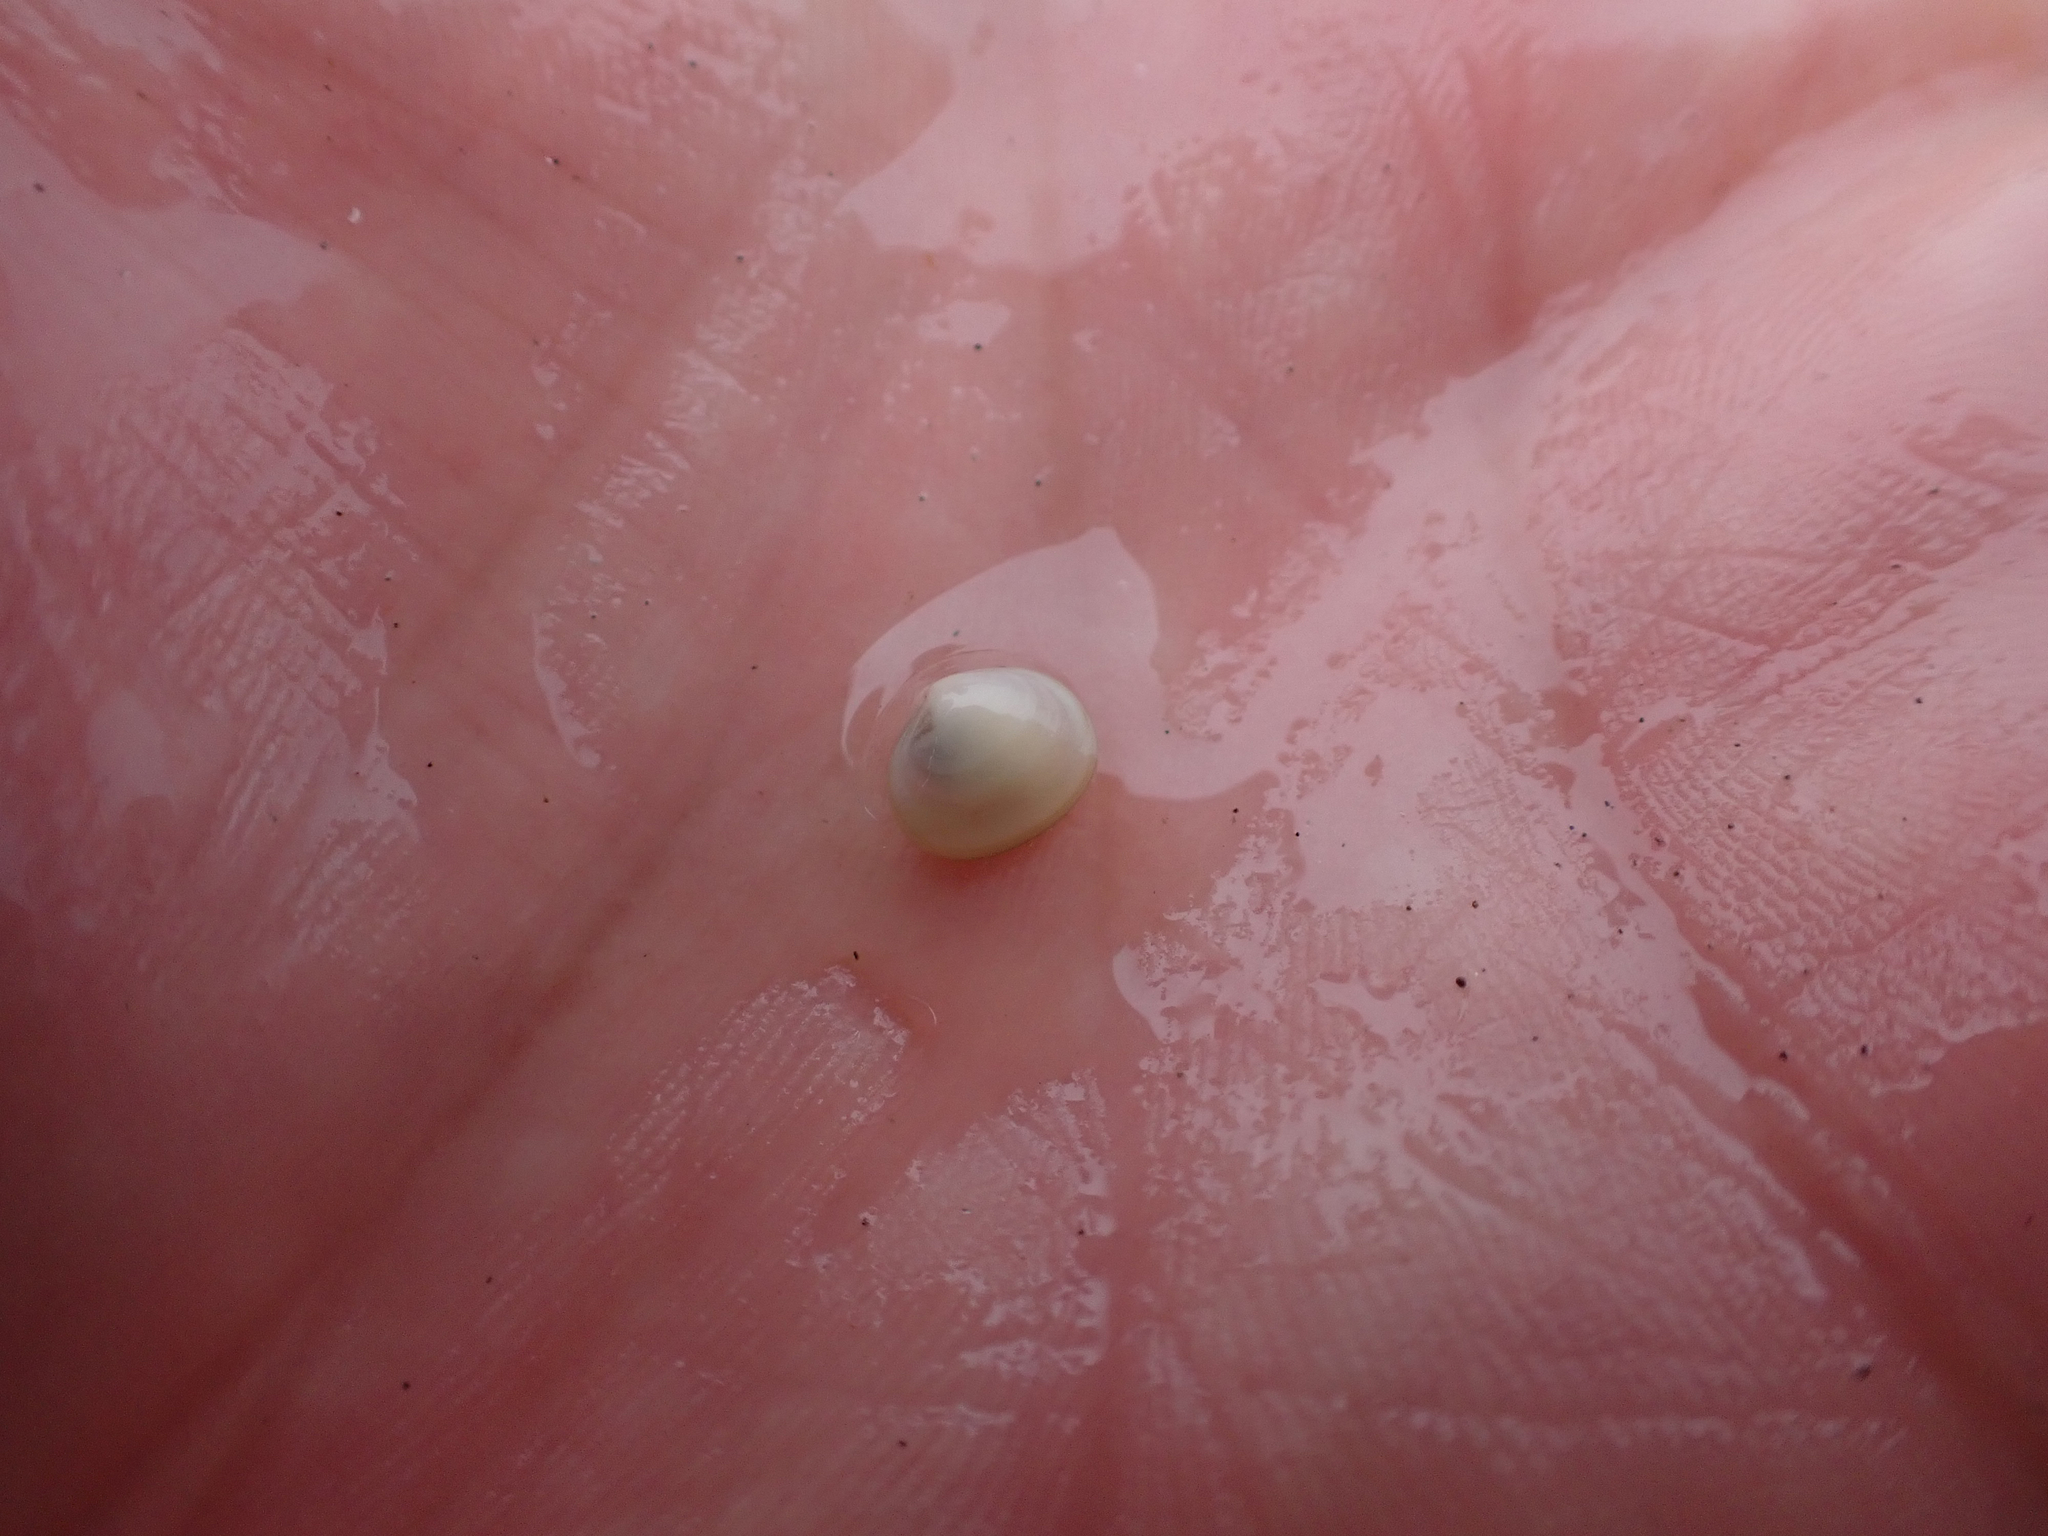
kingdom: Animalia
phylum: Mollusca
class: Bivalvia
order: Galeommatida
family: Lasaeidae
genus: Kellia
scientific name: Kellia laperousii
